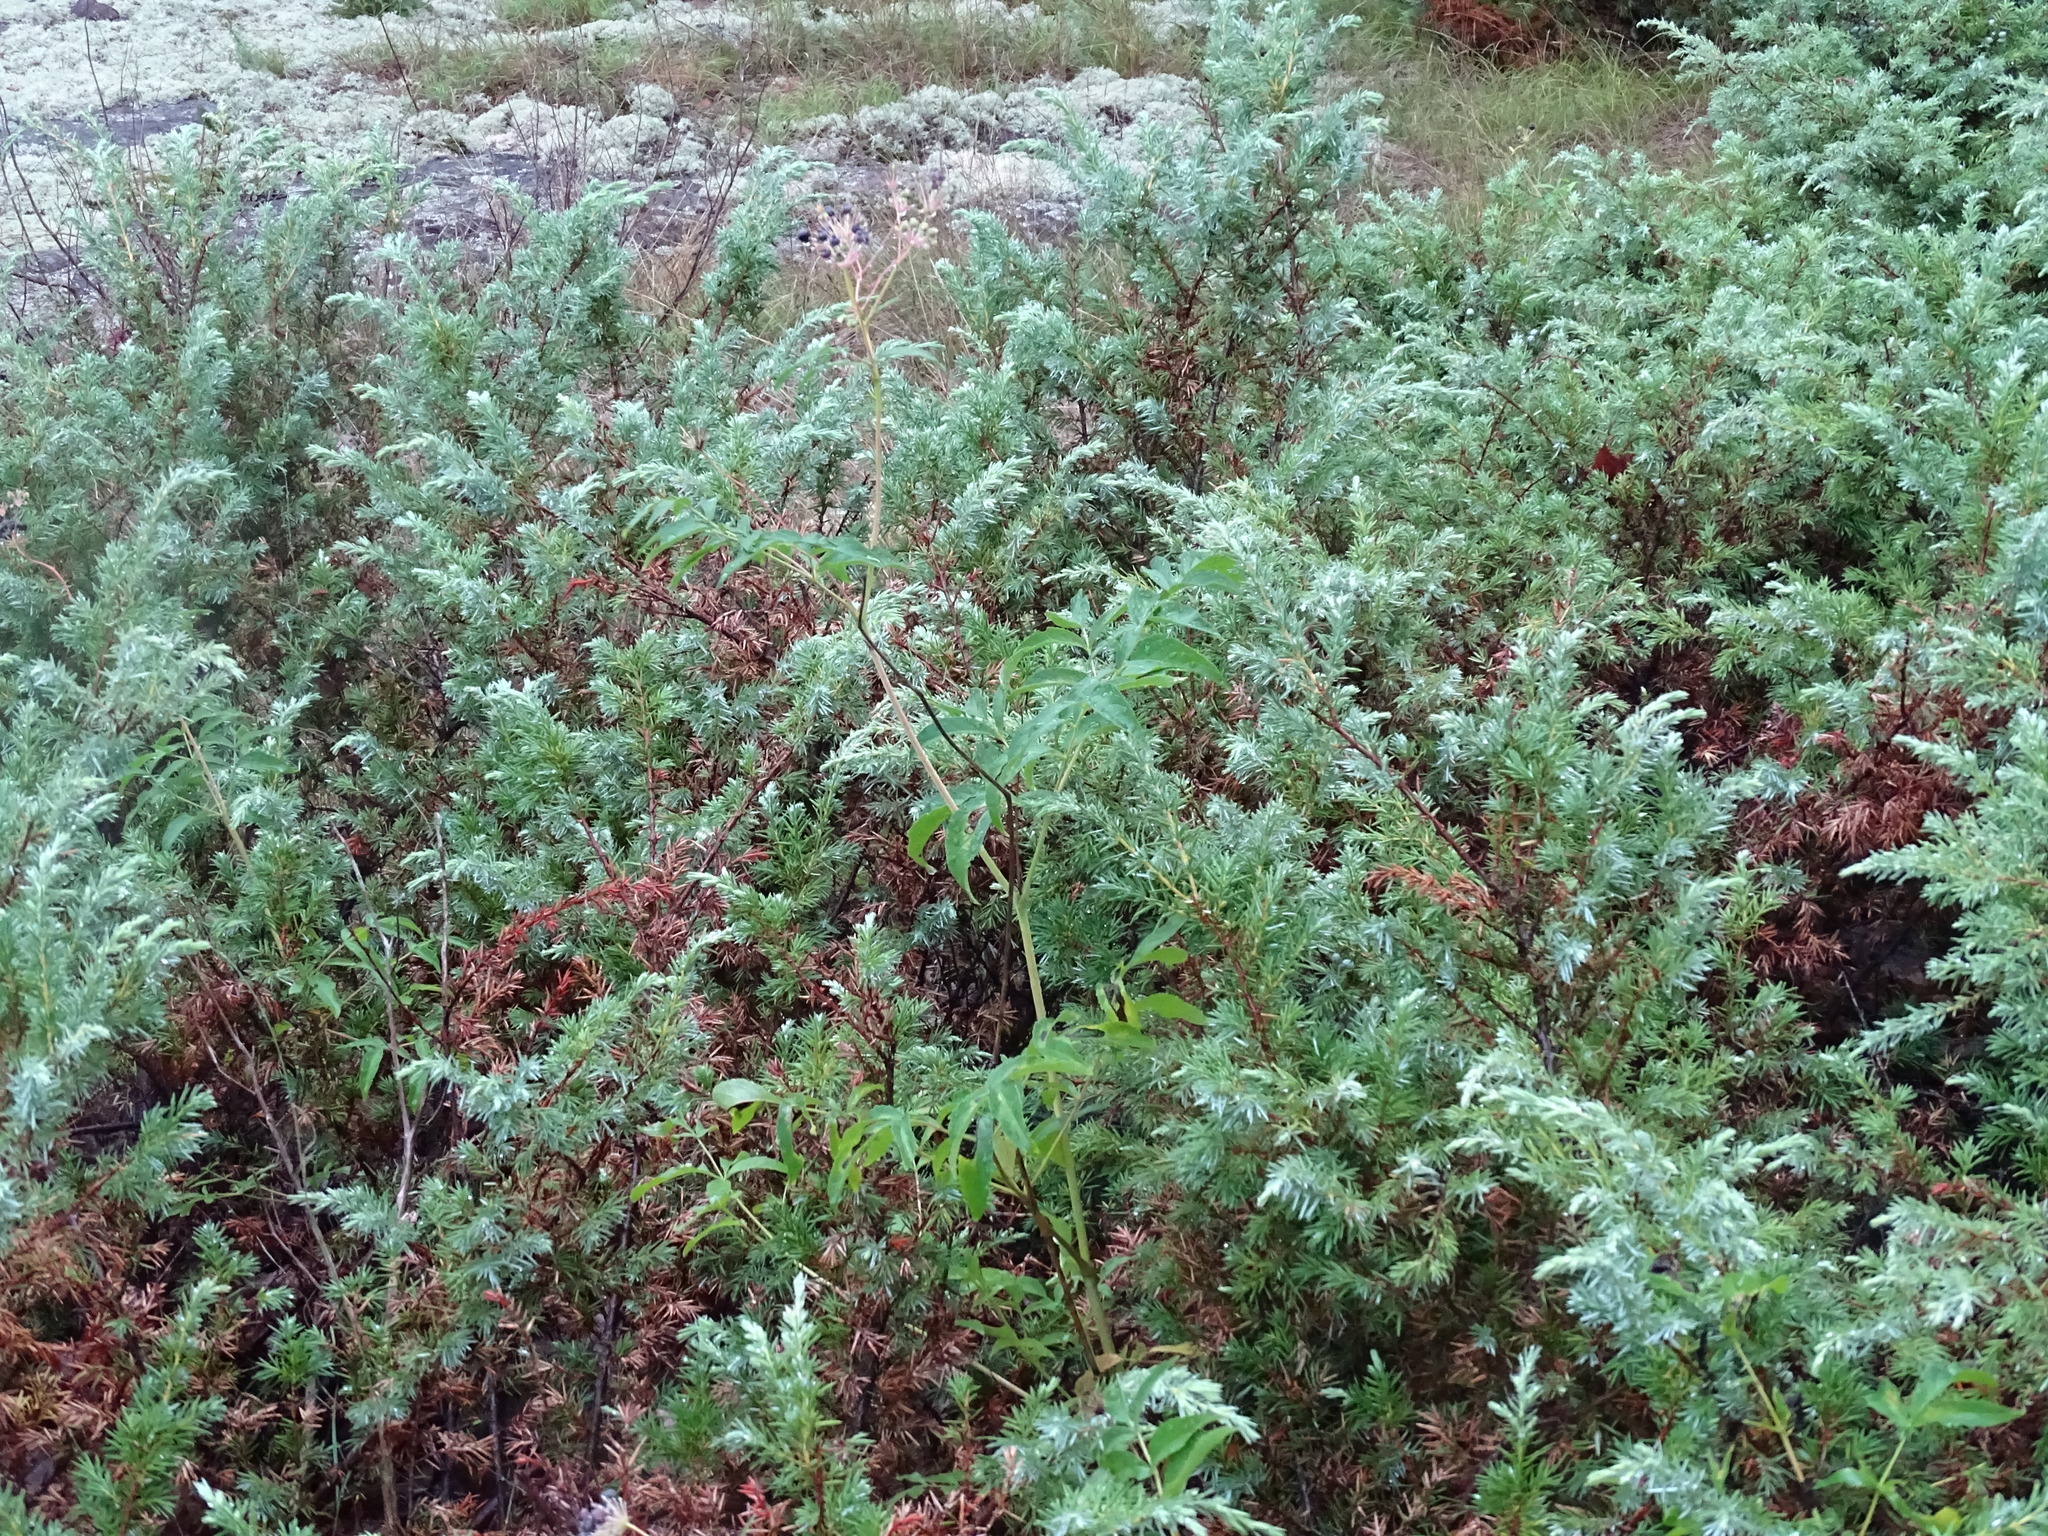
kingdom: Plantae
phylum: Tracheophyta
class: Pinopsida
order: Pinales
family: Cupressaceae
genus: Juniperus
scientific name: Juniperus communis
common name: Common juniper
